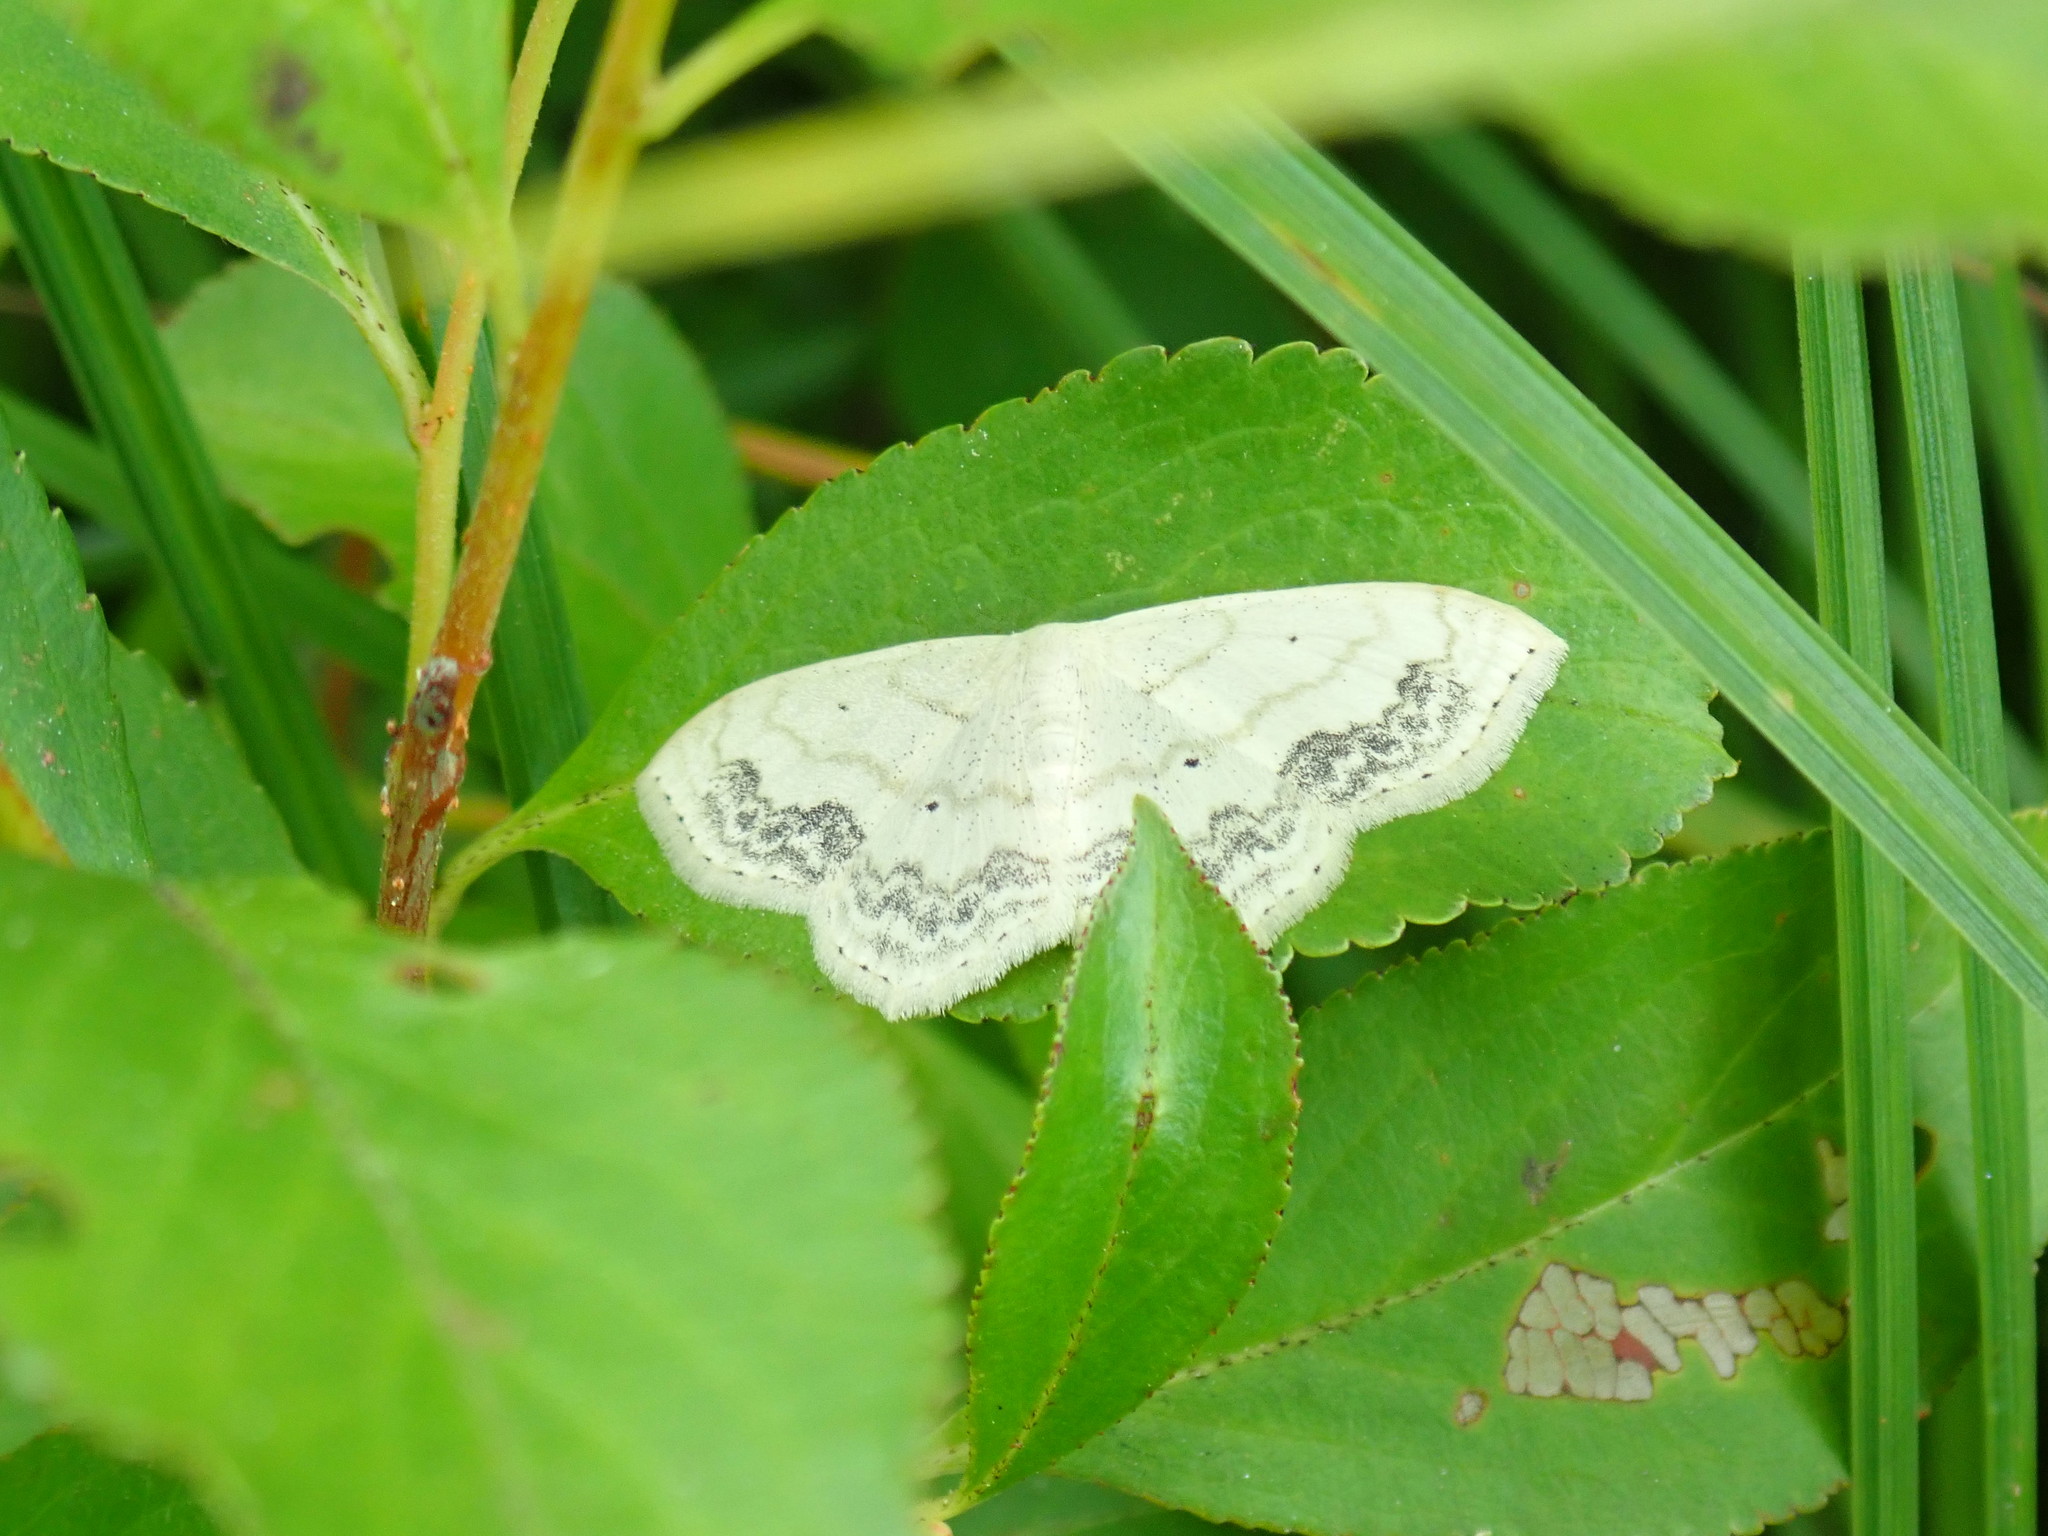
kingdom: Animalia
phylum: Arthropoda
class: Insecta
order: Lepidoptera
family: Geometridae
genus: Scopula
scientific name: Scopula limboundata
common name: Large lace border
